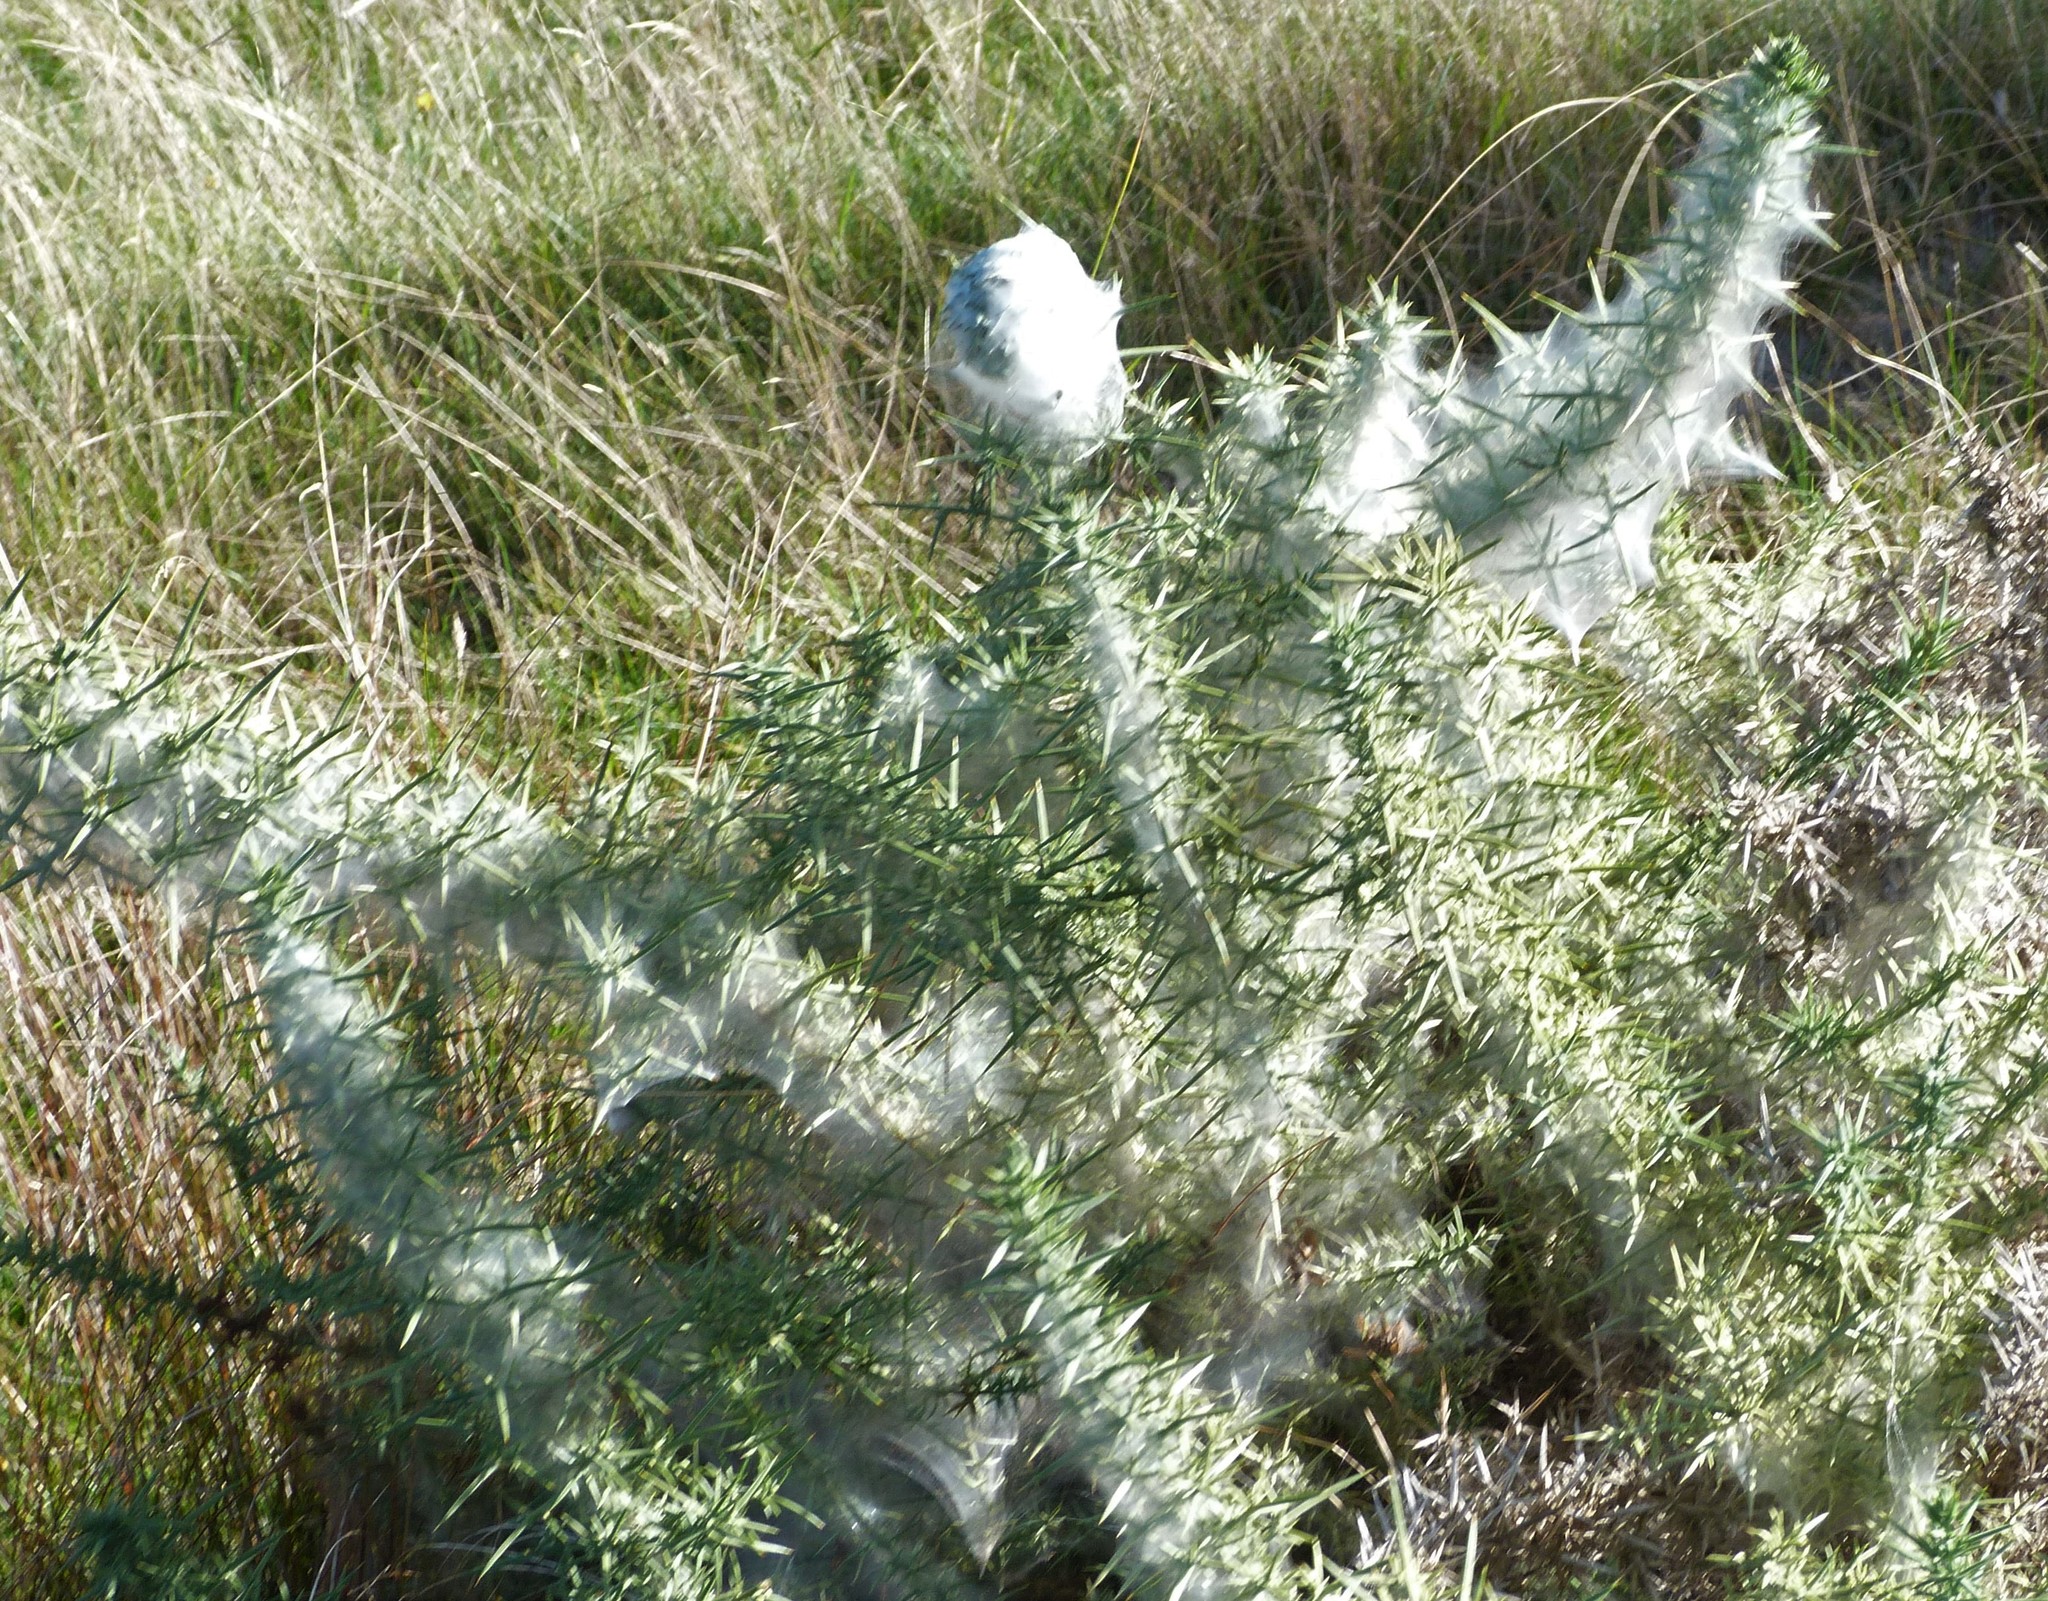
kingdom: Animalia
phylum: Arthropoda
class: Arachnida
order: Trombidiformes
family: Tetranychidae
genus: Tetranychus
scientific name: Tetranychus lintearius
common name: Gorse spider mite
